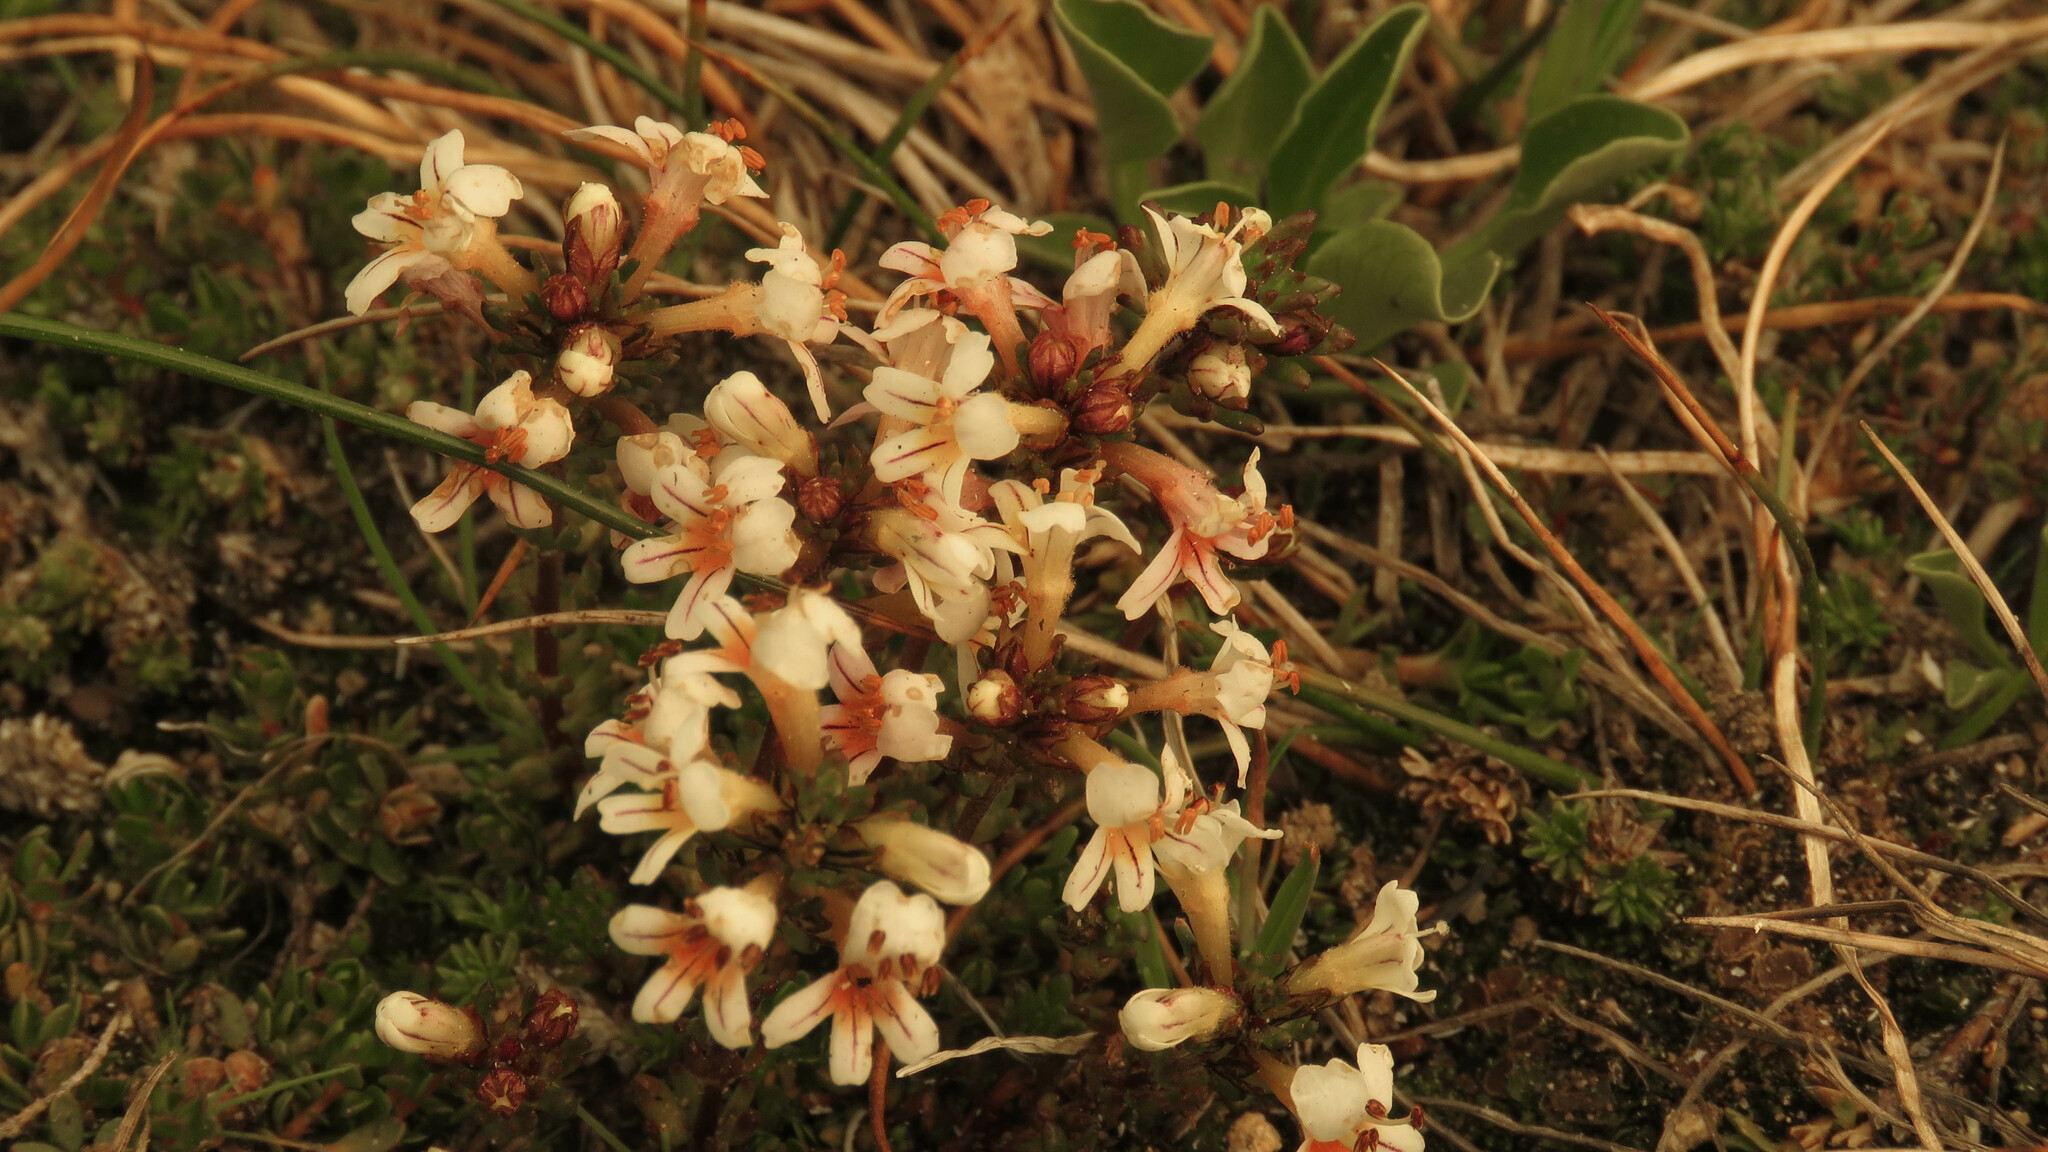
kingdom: Plantae
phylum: Tracheophyta
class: Magnoliopsida
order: Lamiales
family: Orobanchaceae
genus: Euphrasia
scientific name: Euphrasia meiantha
